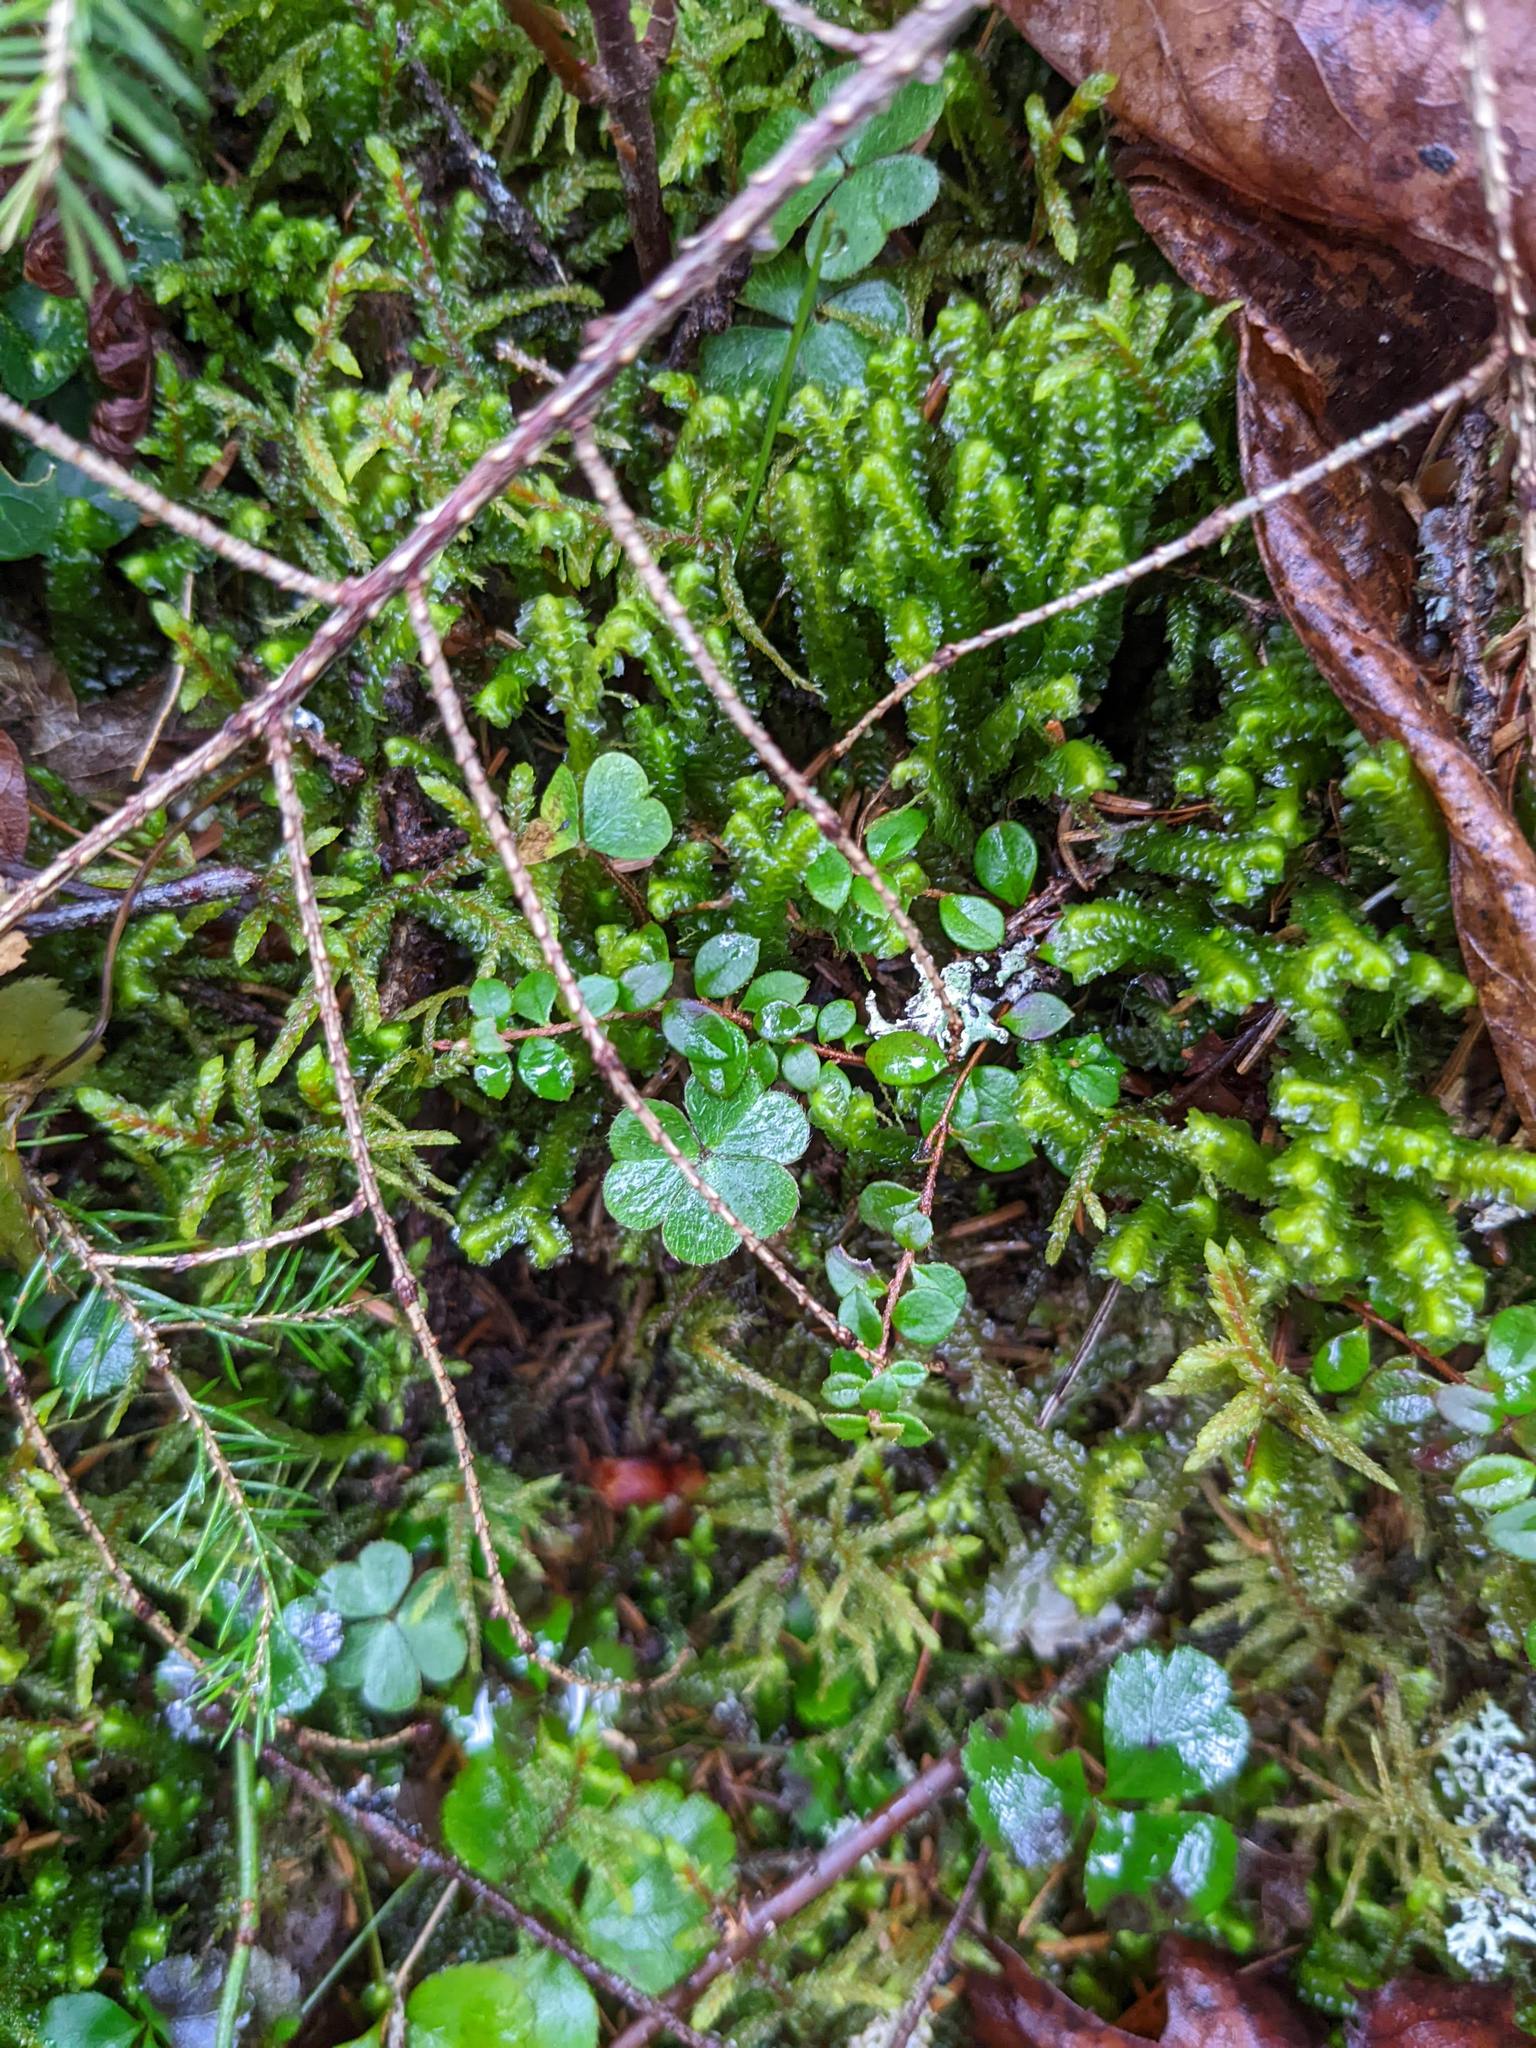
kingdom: Plantae
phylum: Tracheophyta
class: Magnoliopsida
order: Ericales
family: Ericaceae
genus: Gaultheria
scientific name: Gaultheria hispidula
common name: Cancer wintergreen
